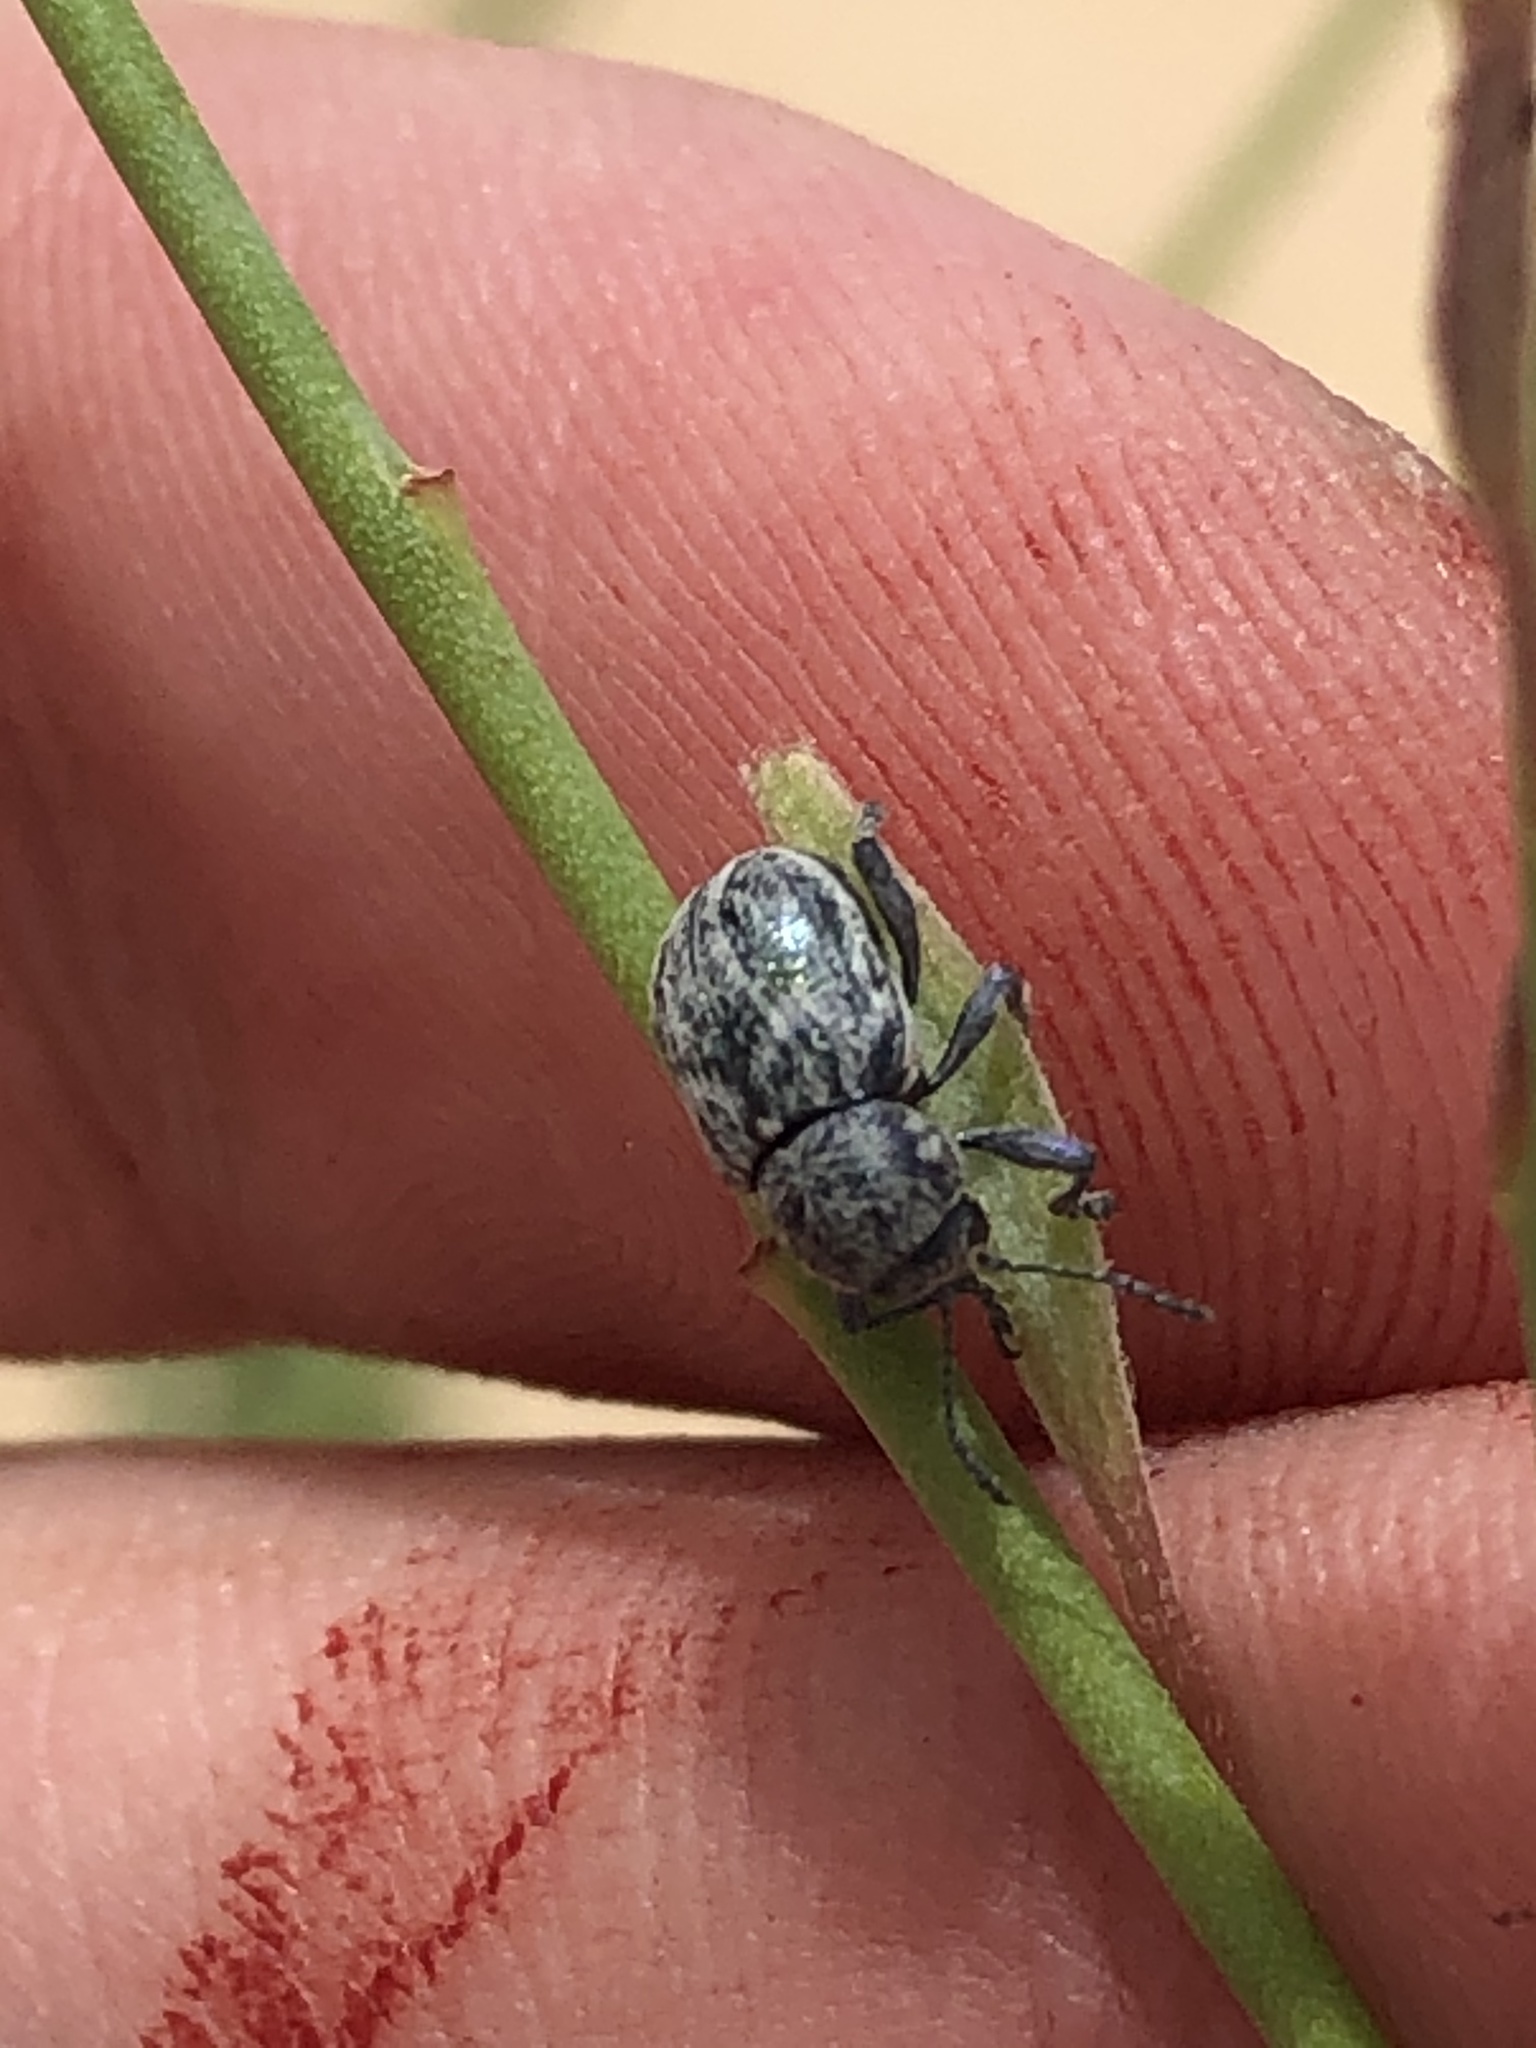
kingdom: Animalia
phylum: Arthropoda
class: Insecta
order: Coleoptera
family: Chrysomelidae
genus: Graphops
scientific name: Graphops comosa
